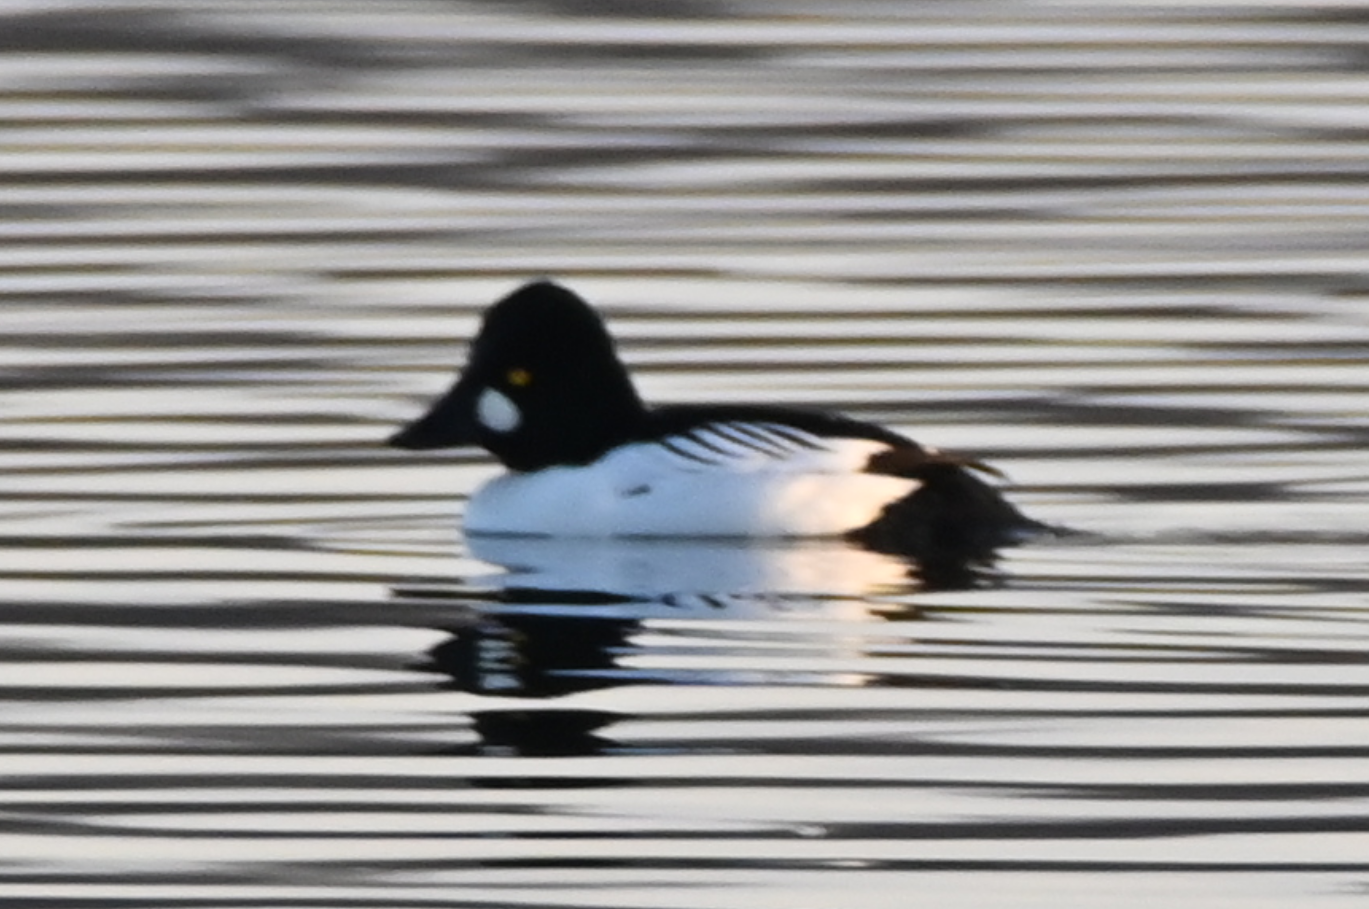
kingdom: Animalia
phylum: Chordata
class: Aves
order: Anseriformes
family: Anatidae
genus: Bucephala
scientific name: Bucephala clangula
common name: Common goldeneye
